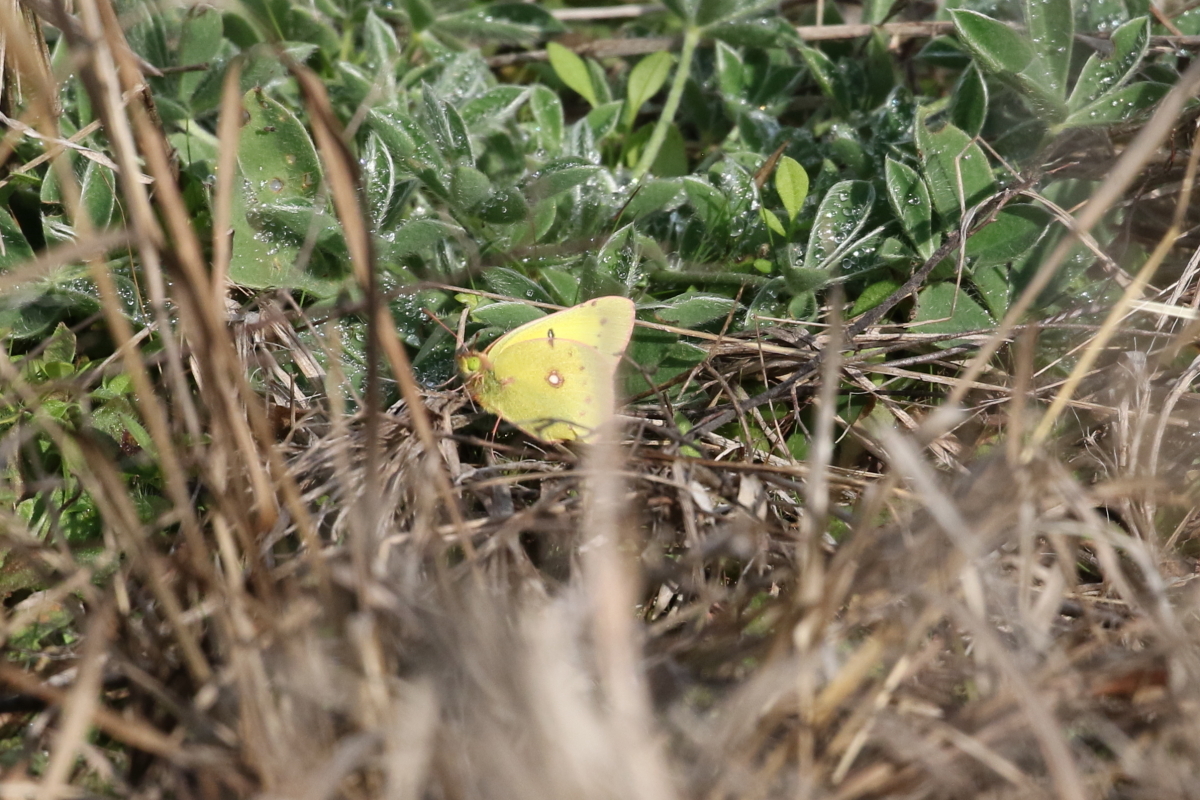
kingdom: Animalia
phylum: Arthropoda
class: Insecta
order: Lepidoptera
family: Pieridae
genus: Colias
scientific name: Colias eurytheme
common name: Alfalfa butterfly
